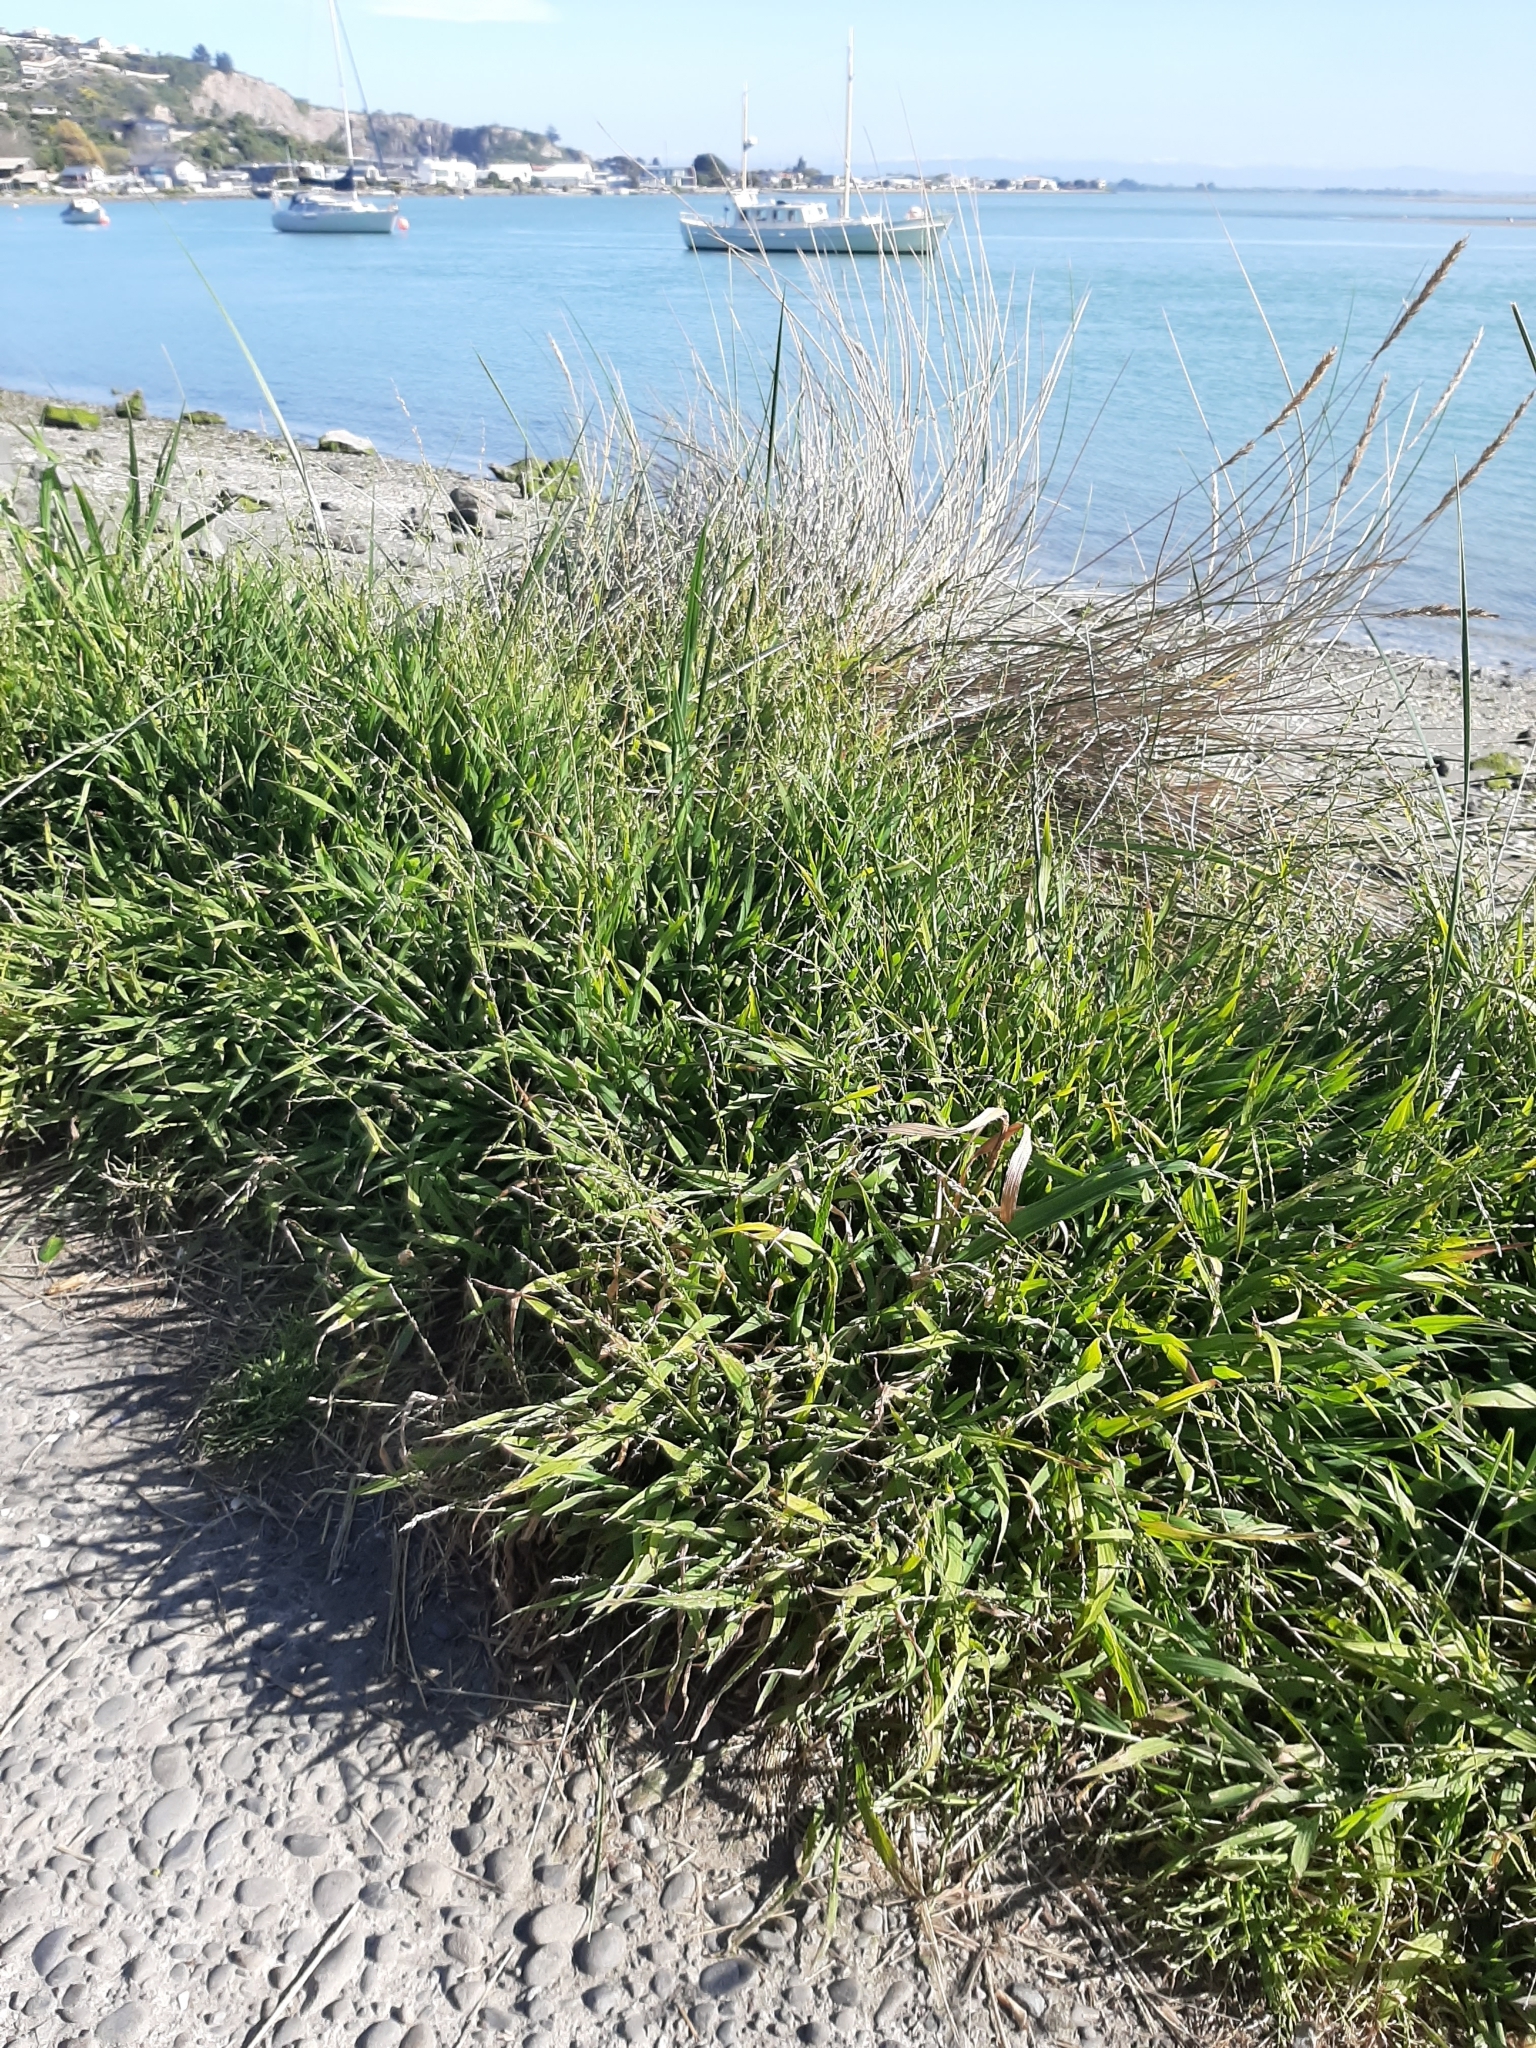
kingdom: Plantae
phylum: Tracheophyta
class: Liliopsida
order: Poales
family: Poaceae
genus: Ehrharta
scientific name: Ehrharta erecta
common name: Panic veldtgrass
